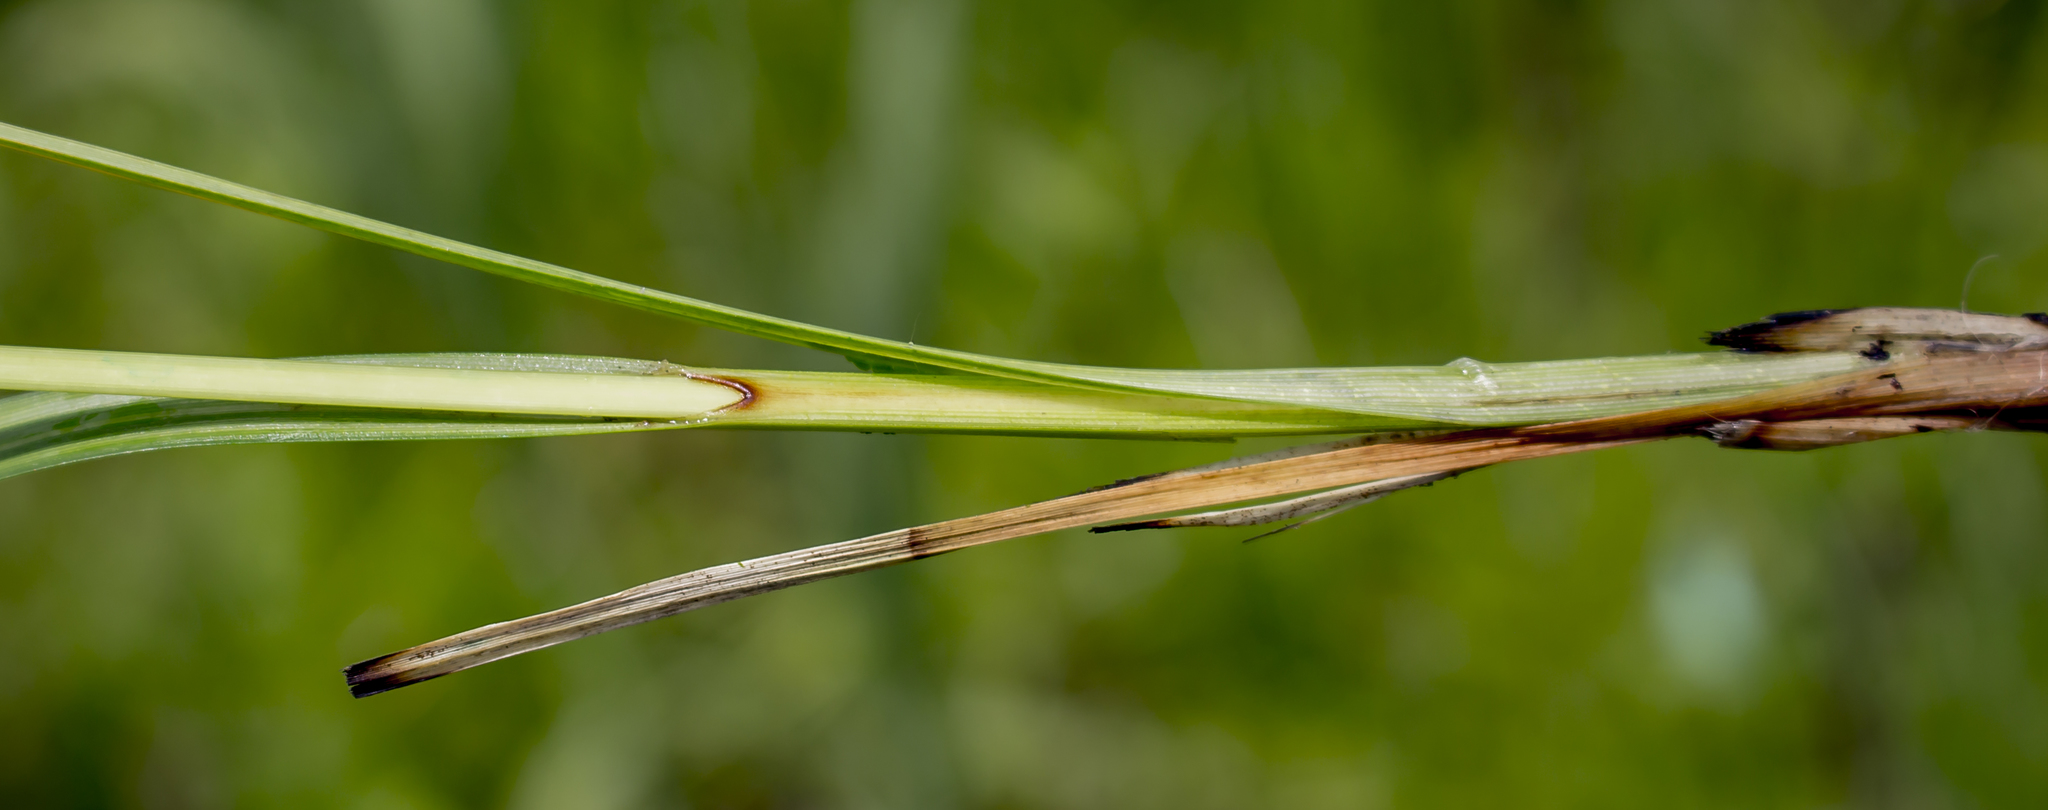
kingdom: Plantae
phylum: Tracheophyta
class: Liliopsida
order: Poales
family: Cyperaceae
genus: Carex
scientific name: Carex trichocarpa
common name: Hairy-fruited lake sedge
